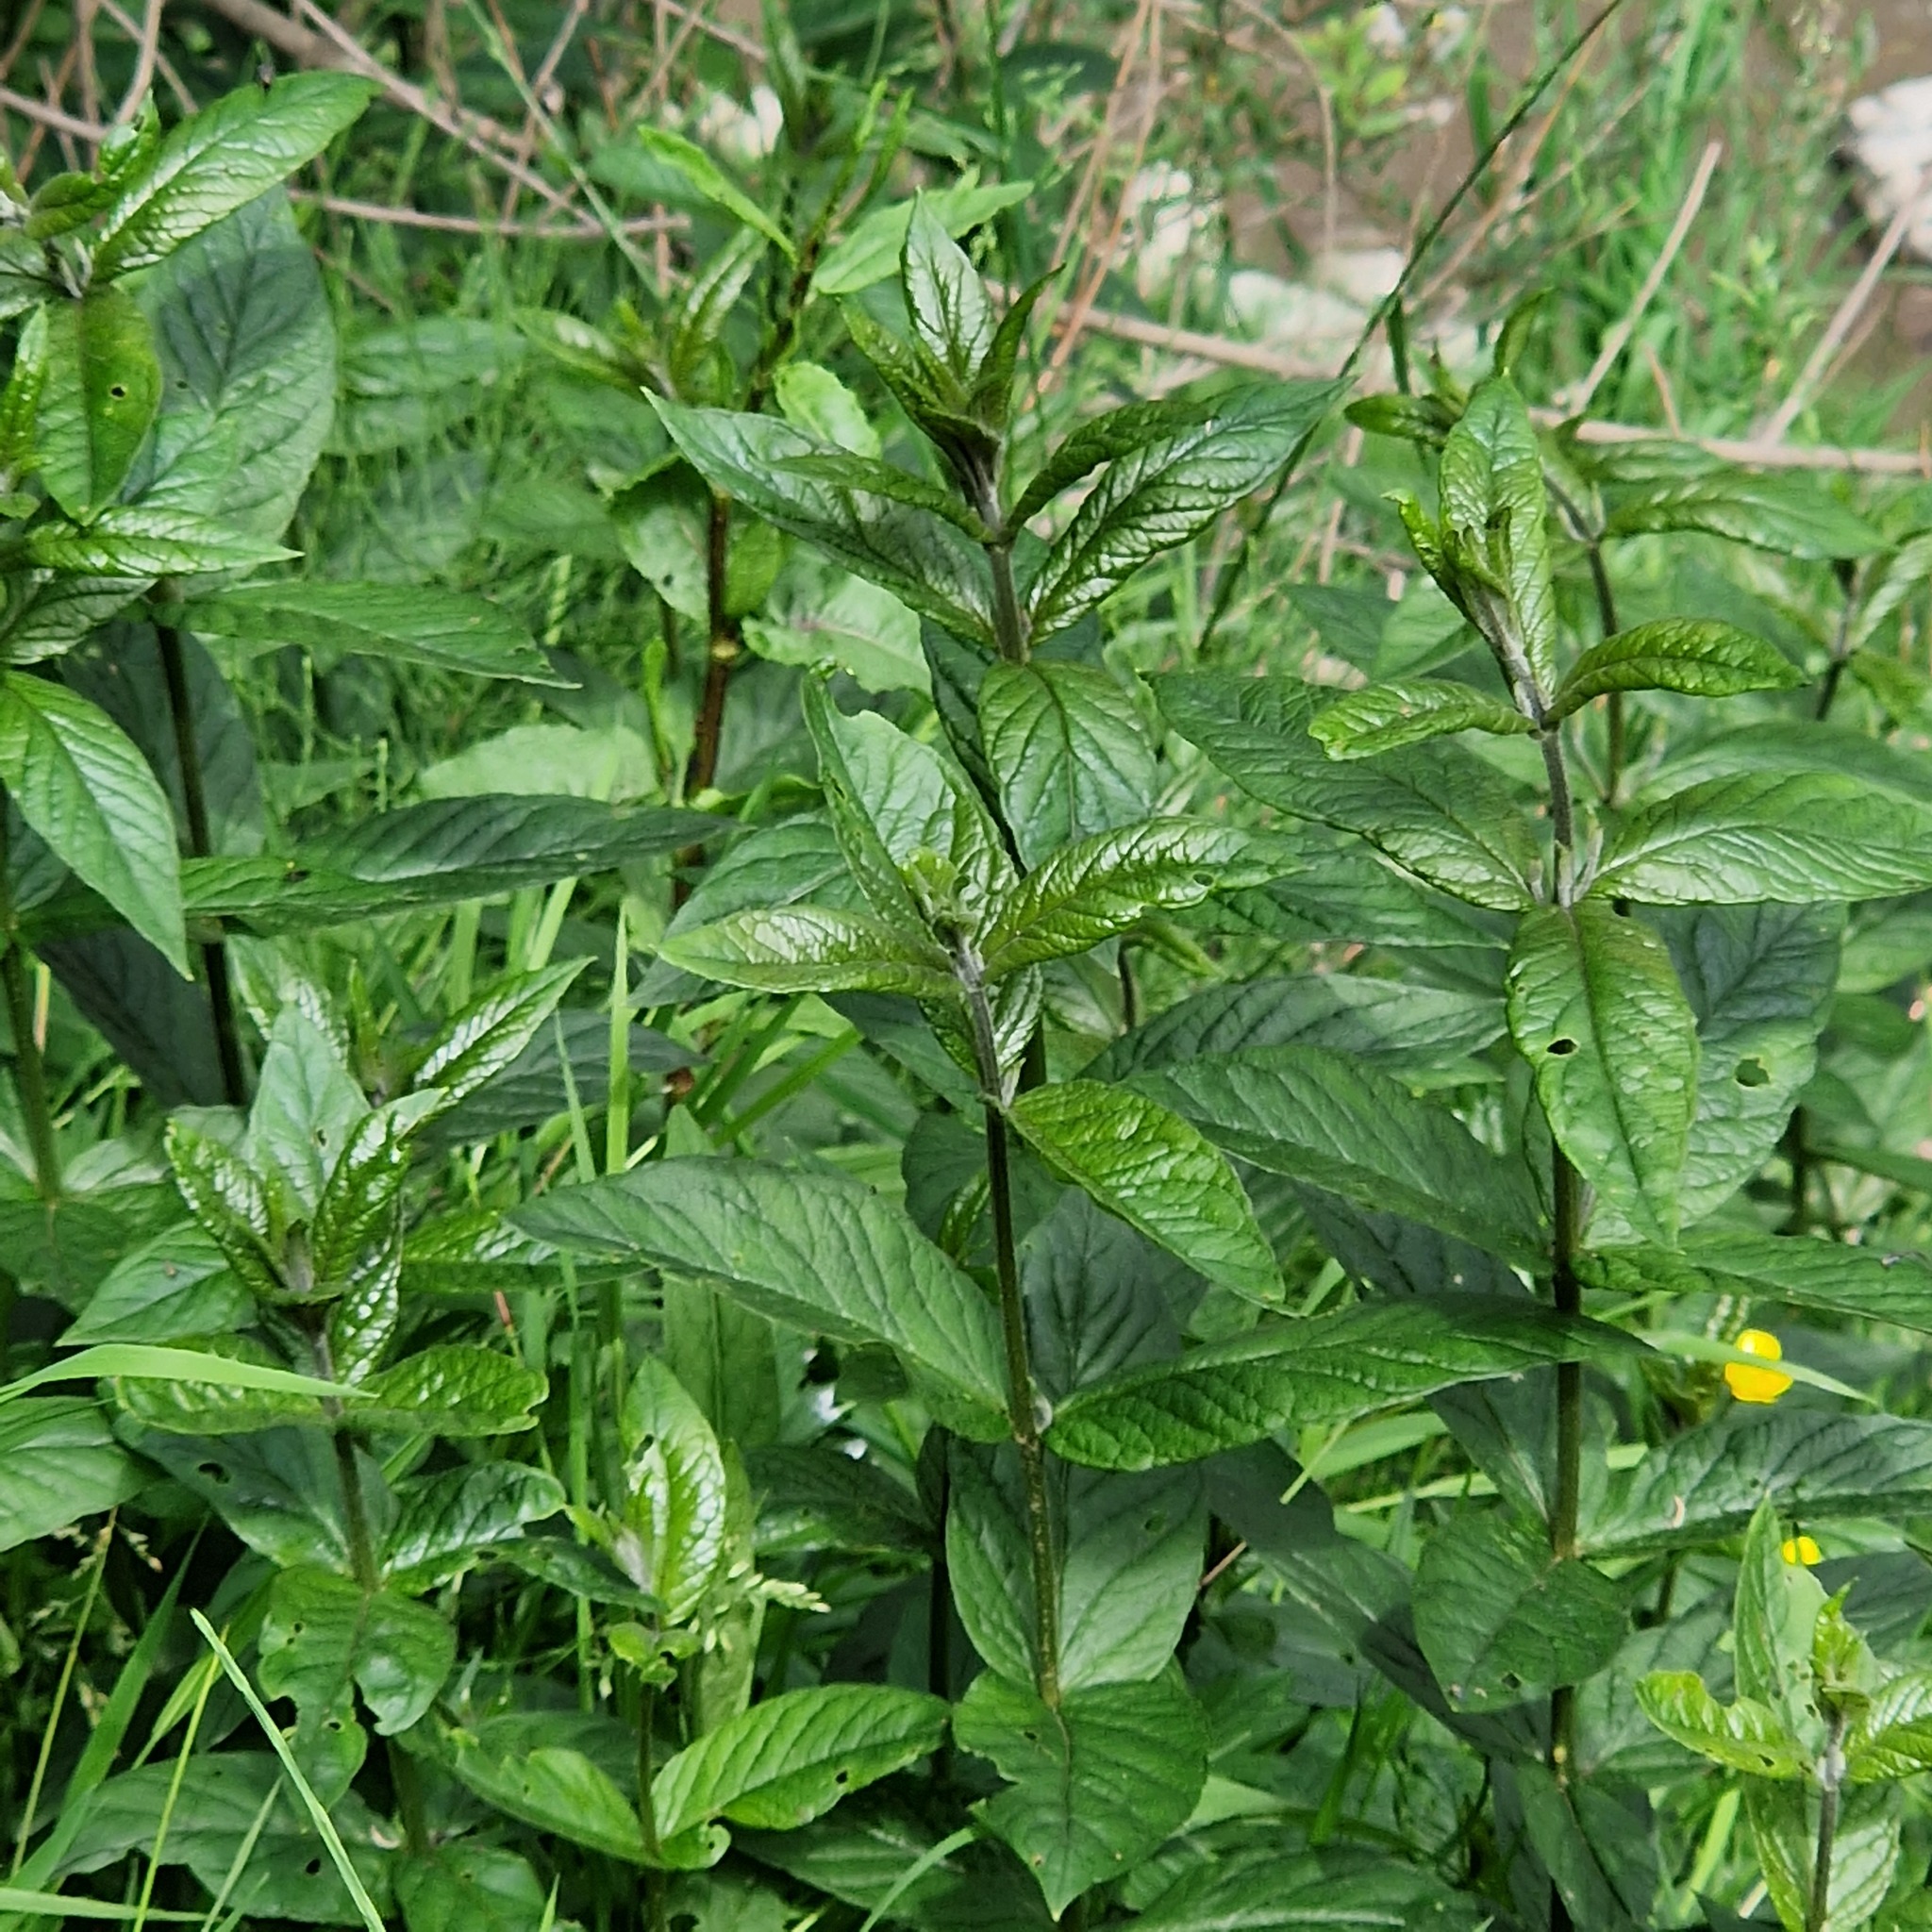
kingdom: Plantae
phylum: Tracheophyta
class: Magnoliopsida
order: Ericales
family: Primulaceae
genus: Lysimachia
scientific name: Lysimachia vulgaris
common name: Yellow loosestrife
